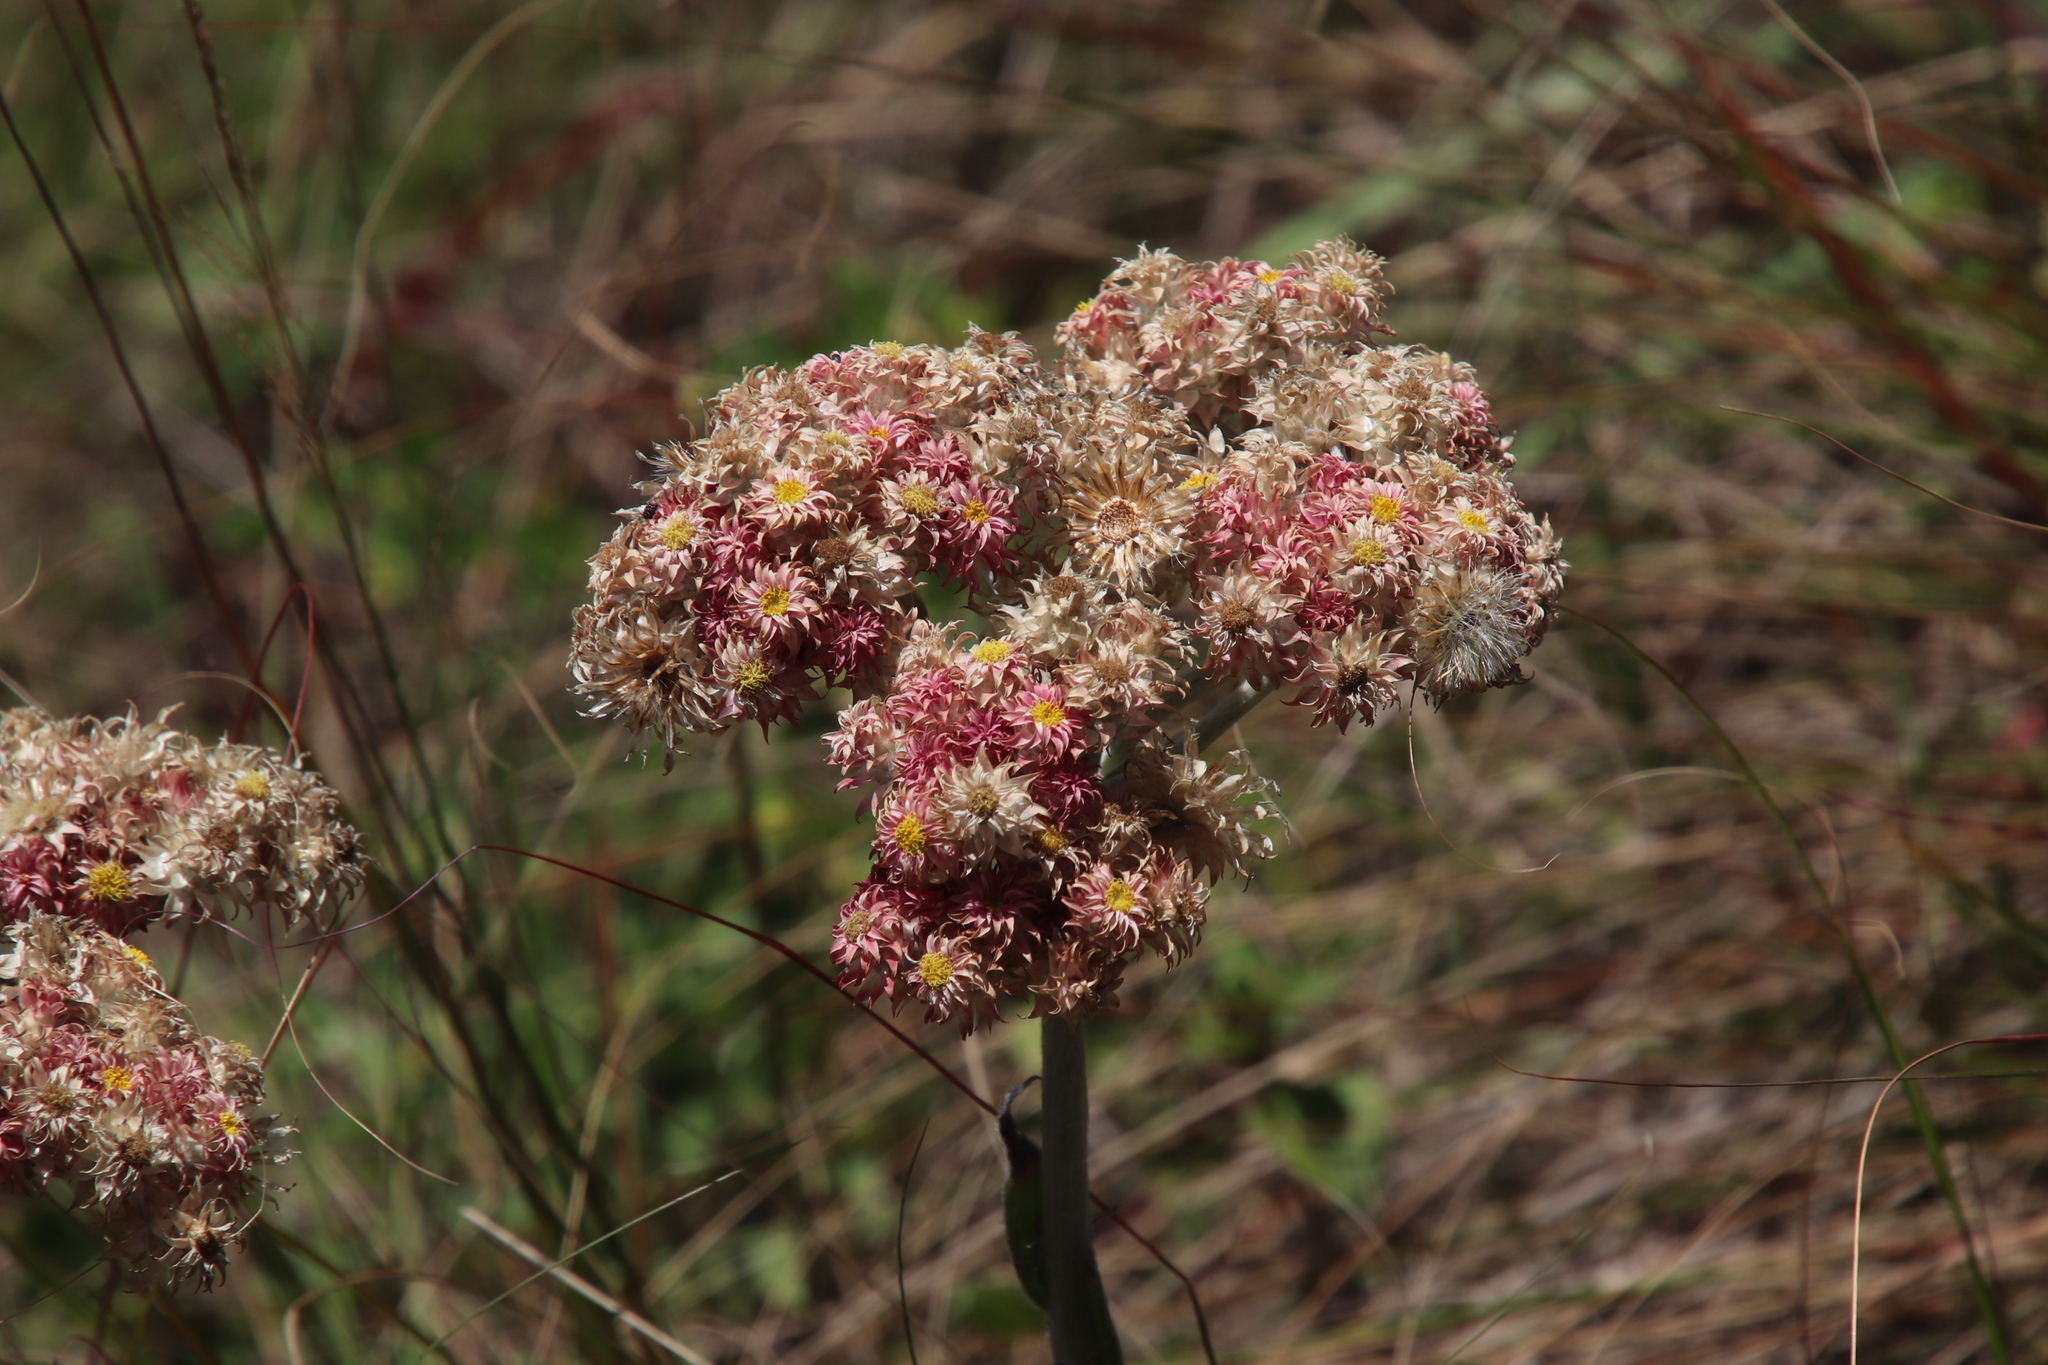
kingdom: Plantae
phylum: Tracheophyta
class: Magnoliopsida
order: Asterales
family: Asteraceae
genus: Helichrysum
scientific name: Helichrysum appendiculatum
